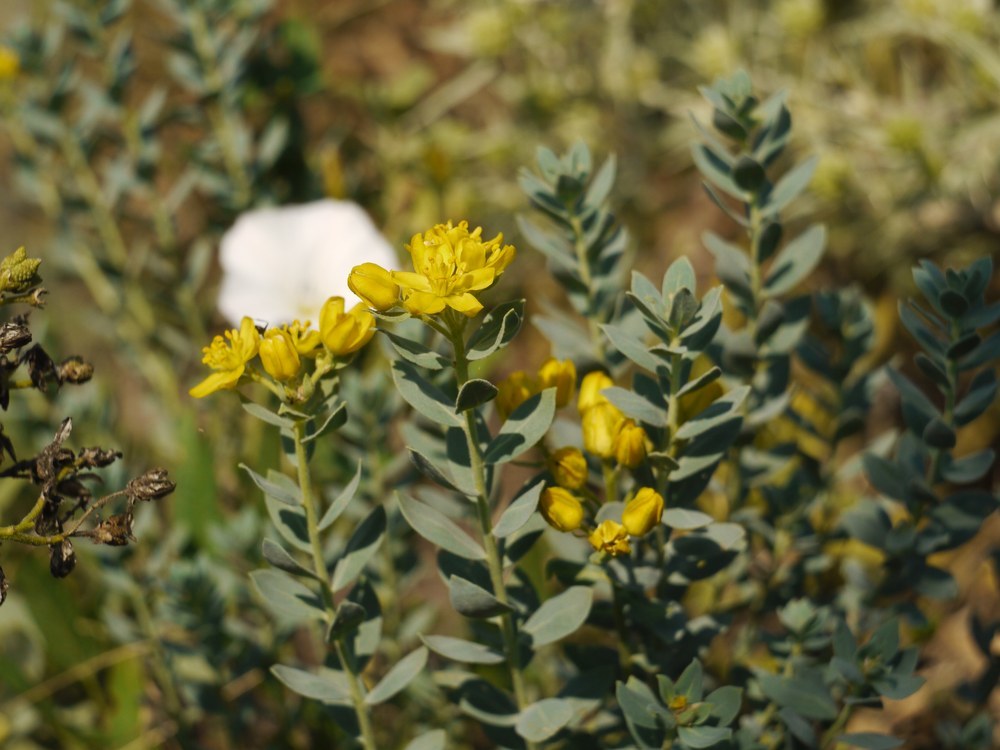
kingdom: Plantae
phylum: Tracheophyta
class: Magnoliopsida
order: Sapindales
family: Rutaceae
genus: Haplophyllum
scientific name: Haplophyllum suaveolens
